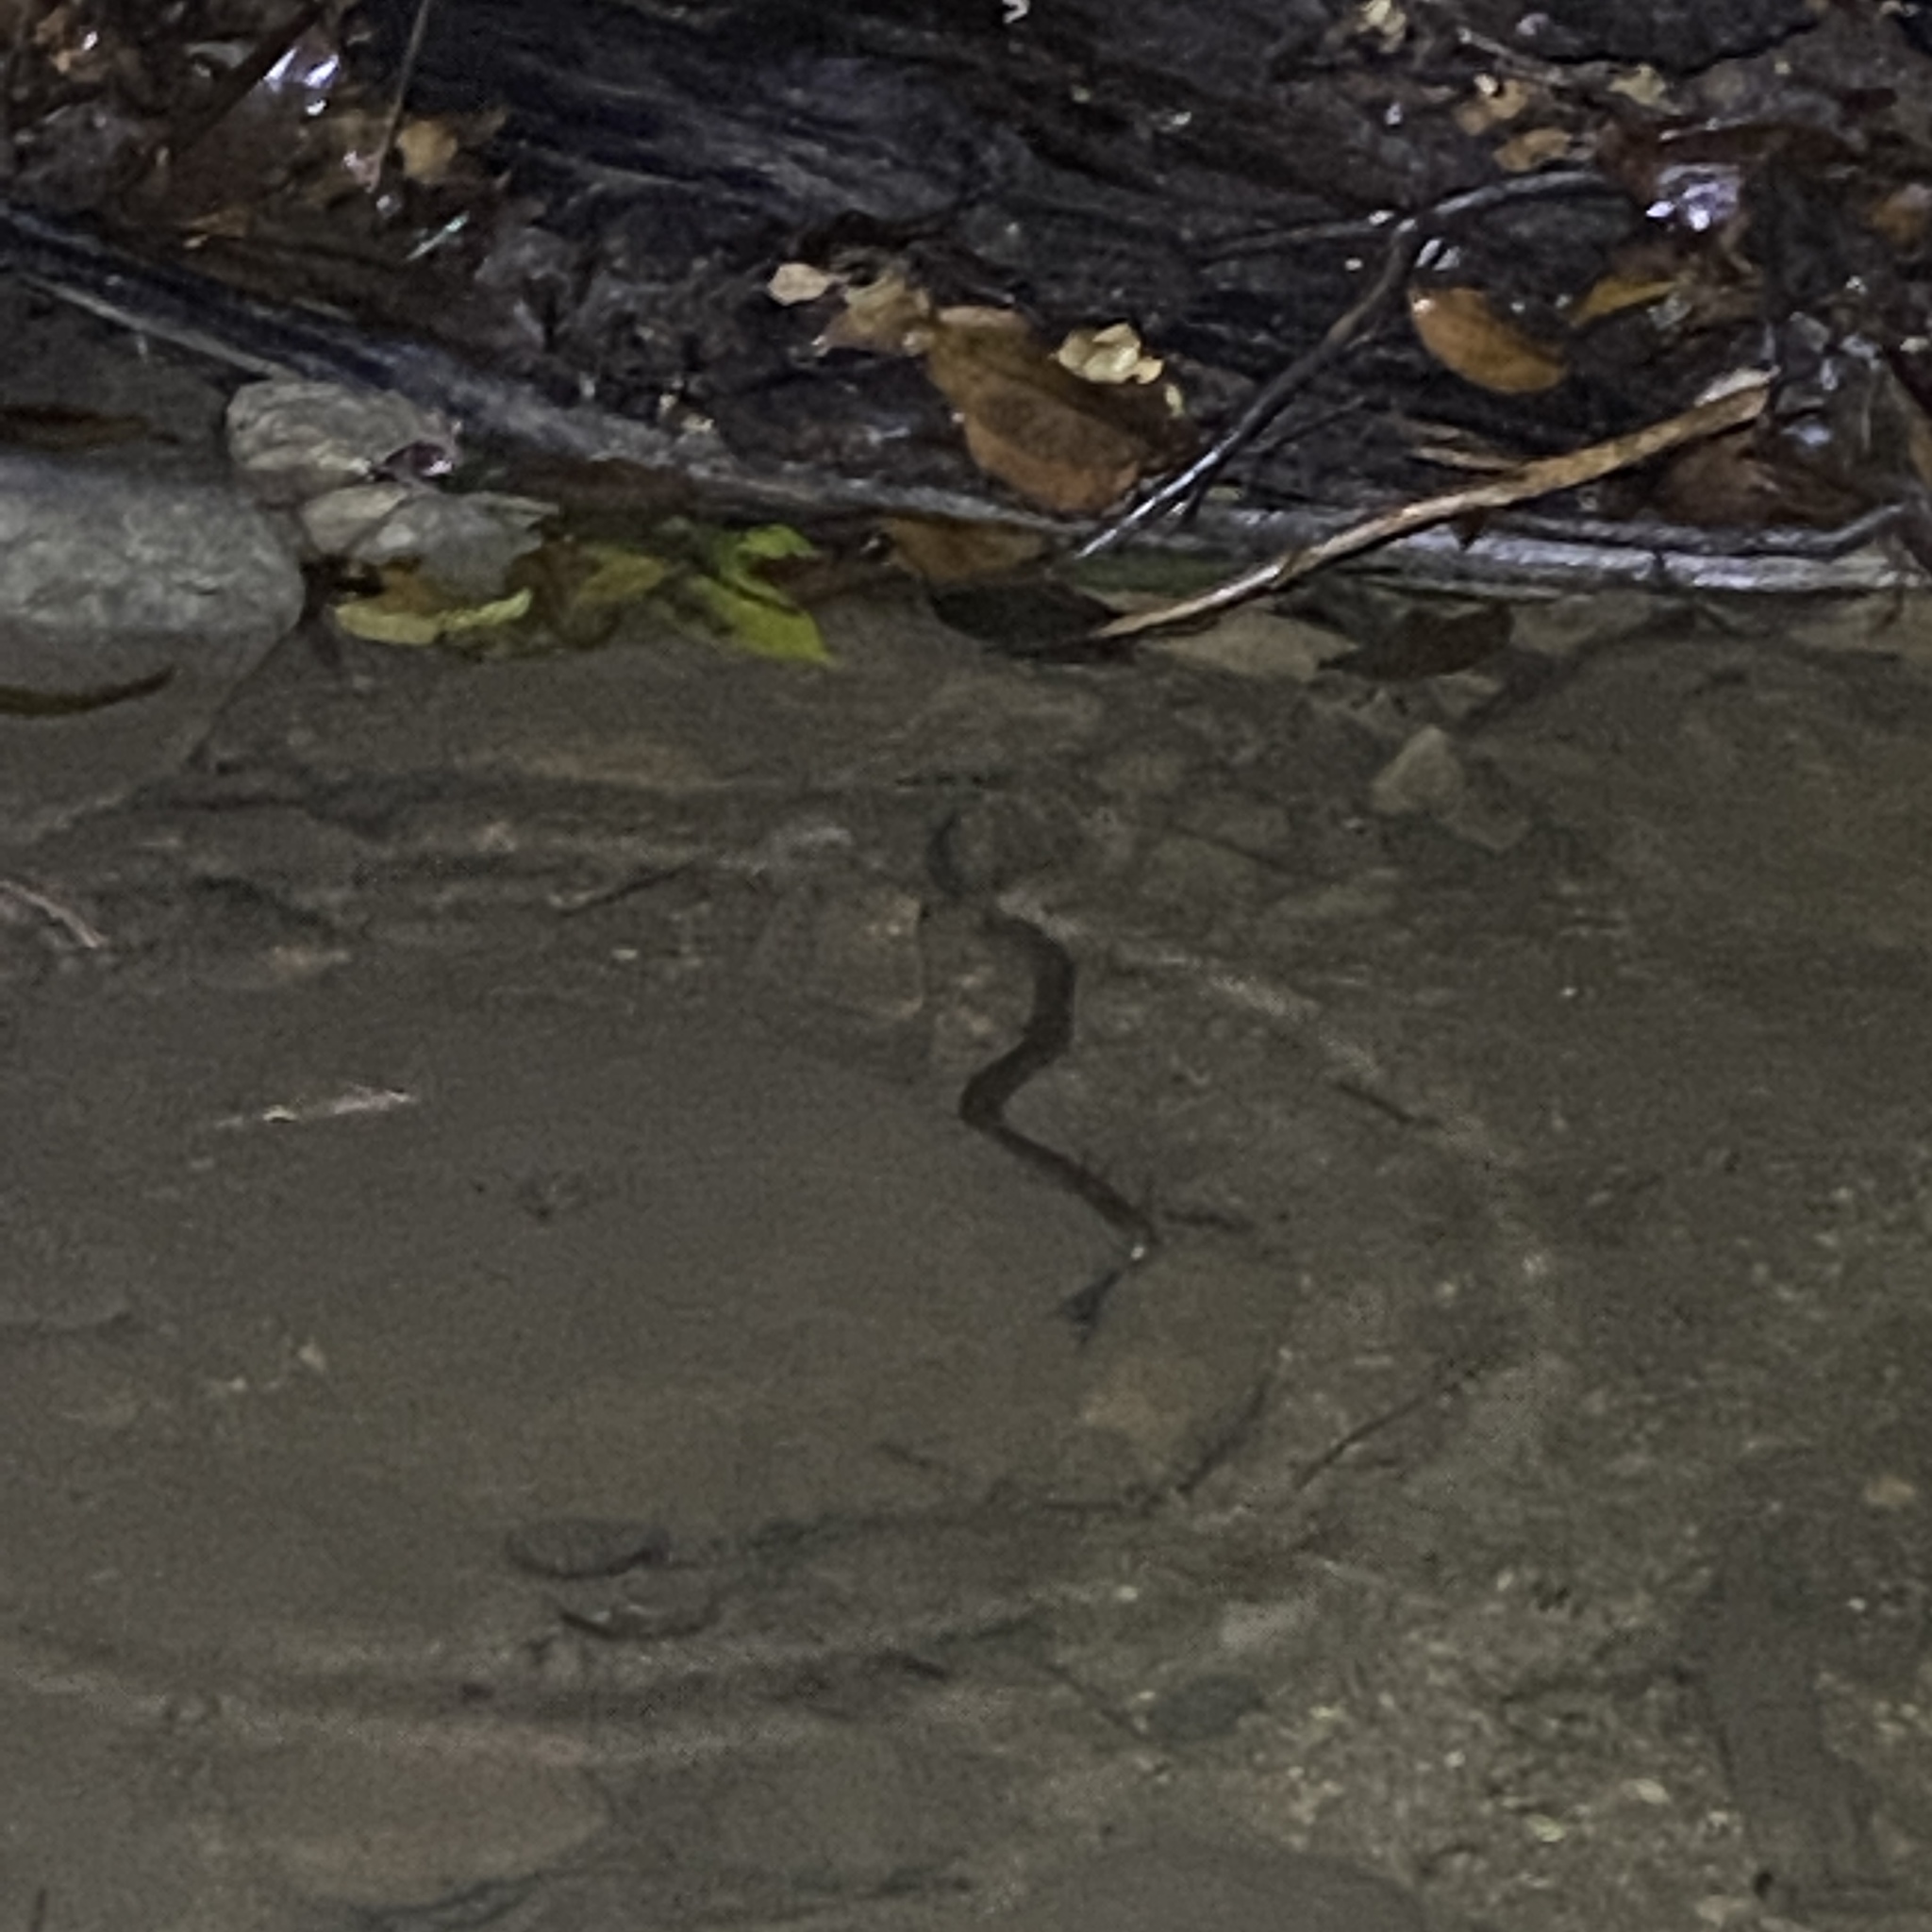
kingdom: Animalia
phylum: Chordata
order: Synbranchiformes
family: Synbranchidae
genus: Synbranchus
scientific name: Synbranchus marmoratus
